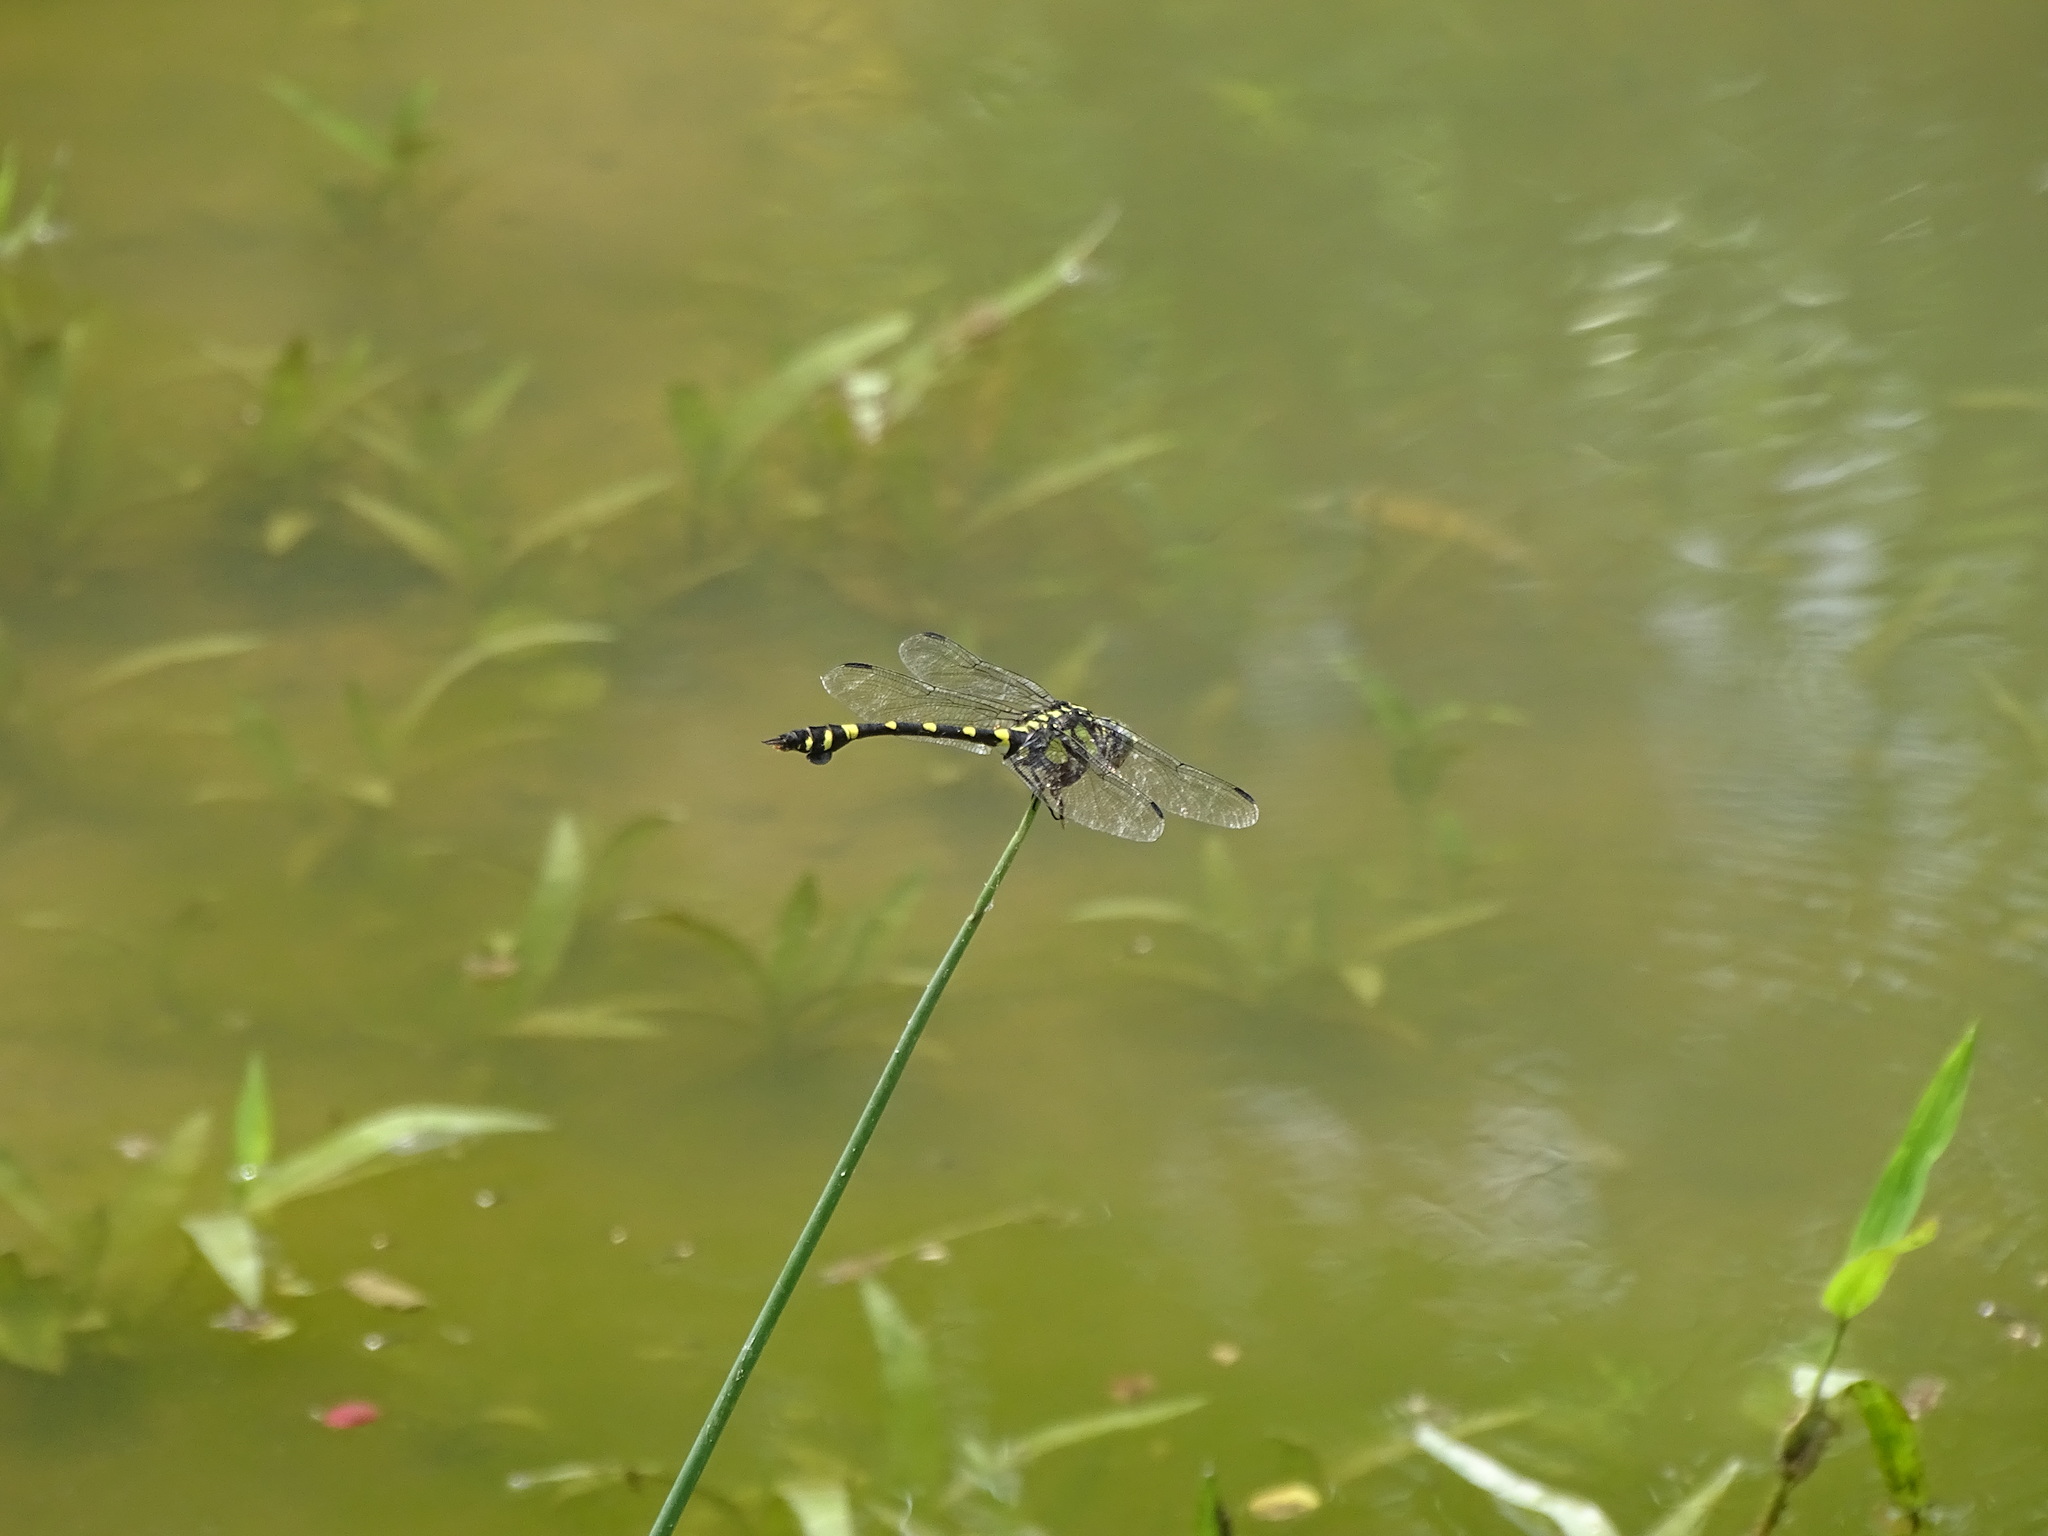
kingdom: Animalia
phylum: Arthropoda
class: Insecta
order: Odonata
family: Gomphidae
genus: Ictinogomphus
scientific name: Ictinogomphus rapax
